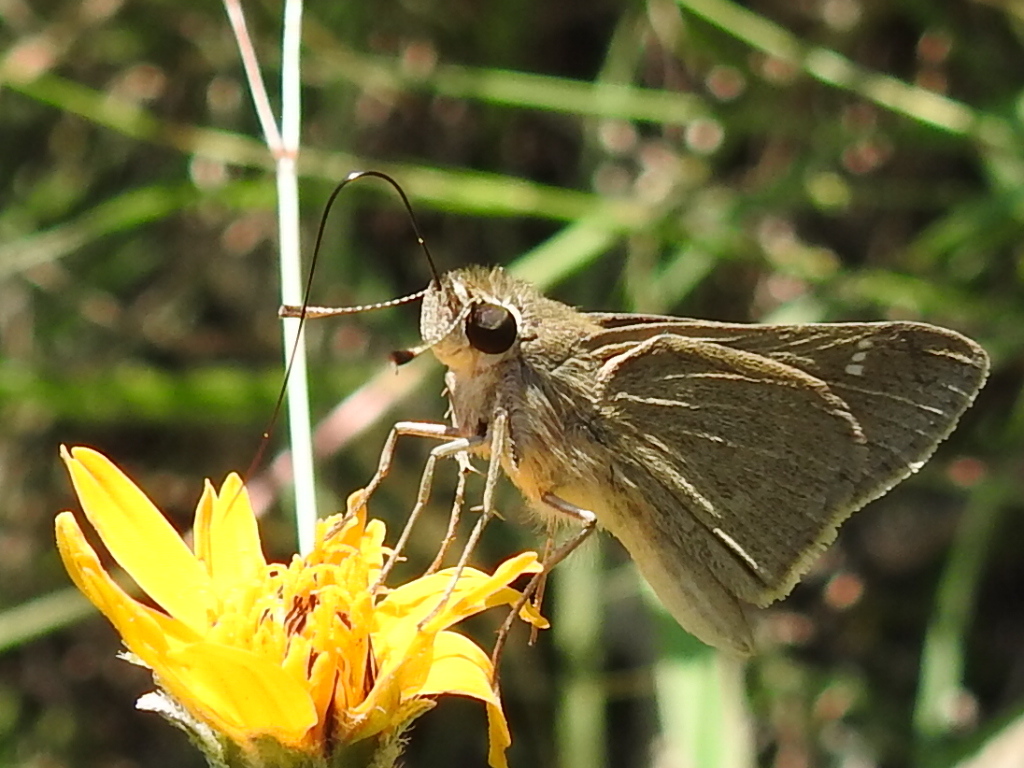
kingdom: Animalia
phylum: Arthropoda
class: Insecta
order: Lepidoptera
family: Hesperiidae
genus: Lerodea
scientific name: Lerodea eufala
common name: Eufala skipper
